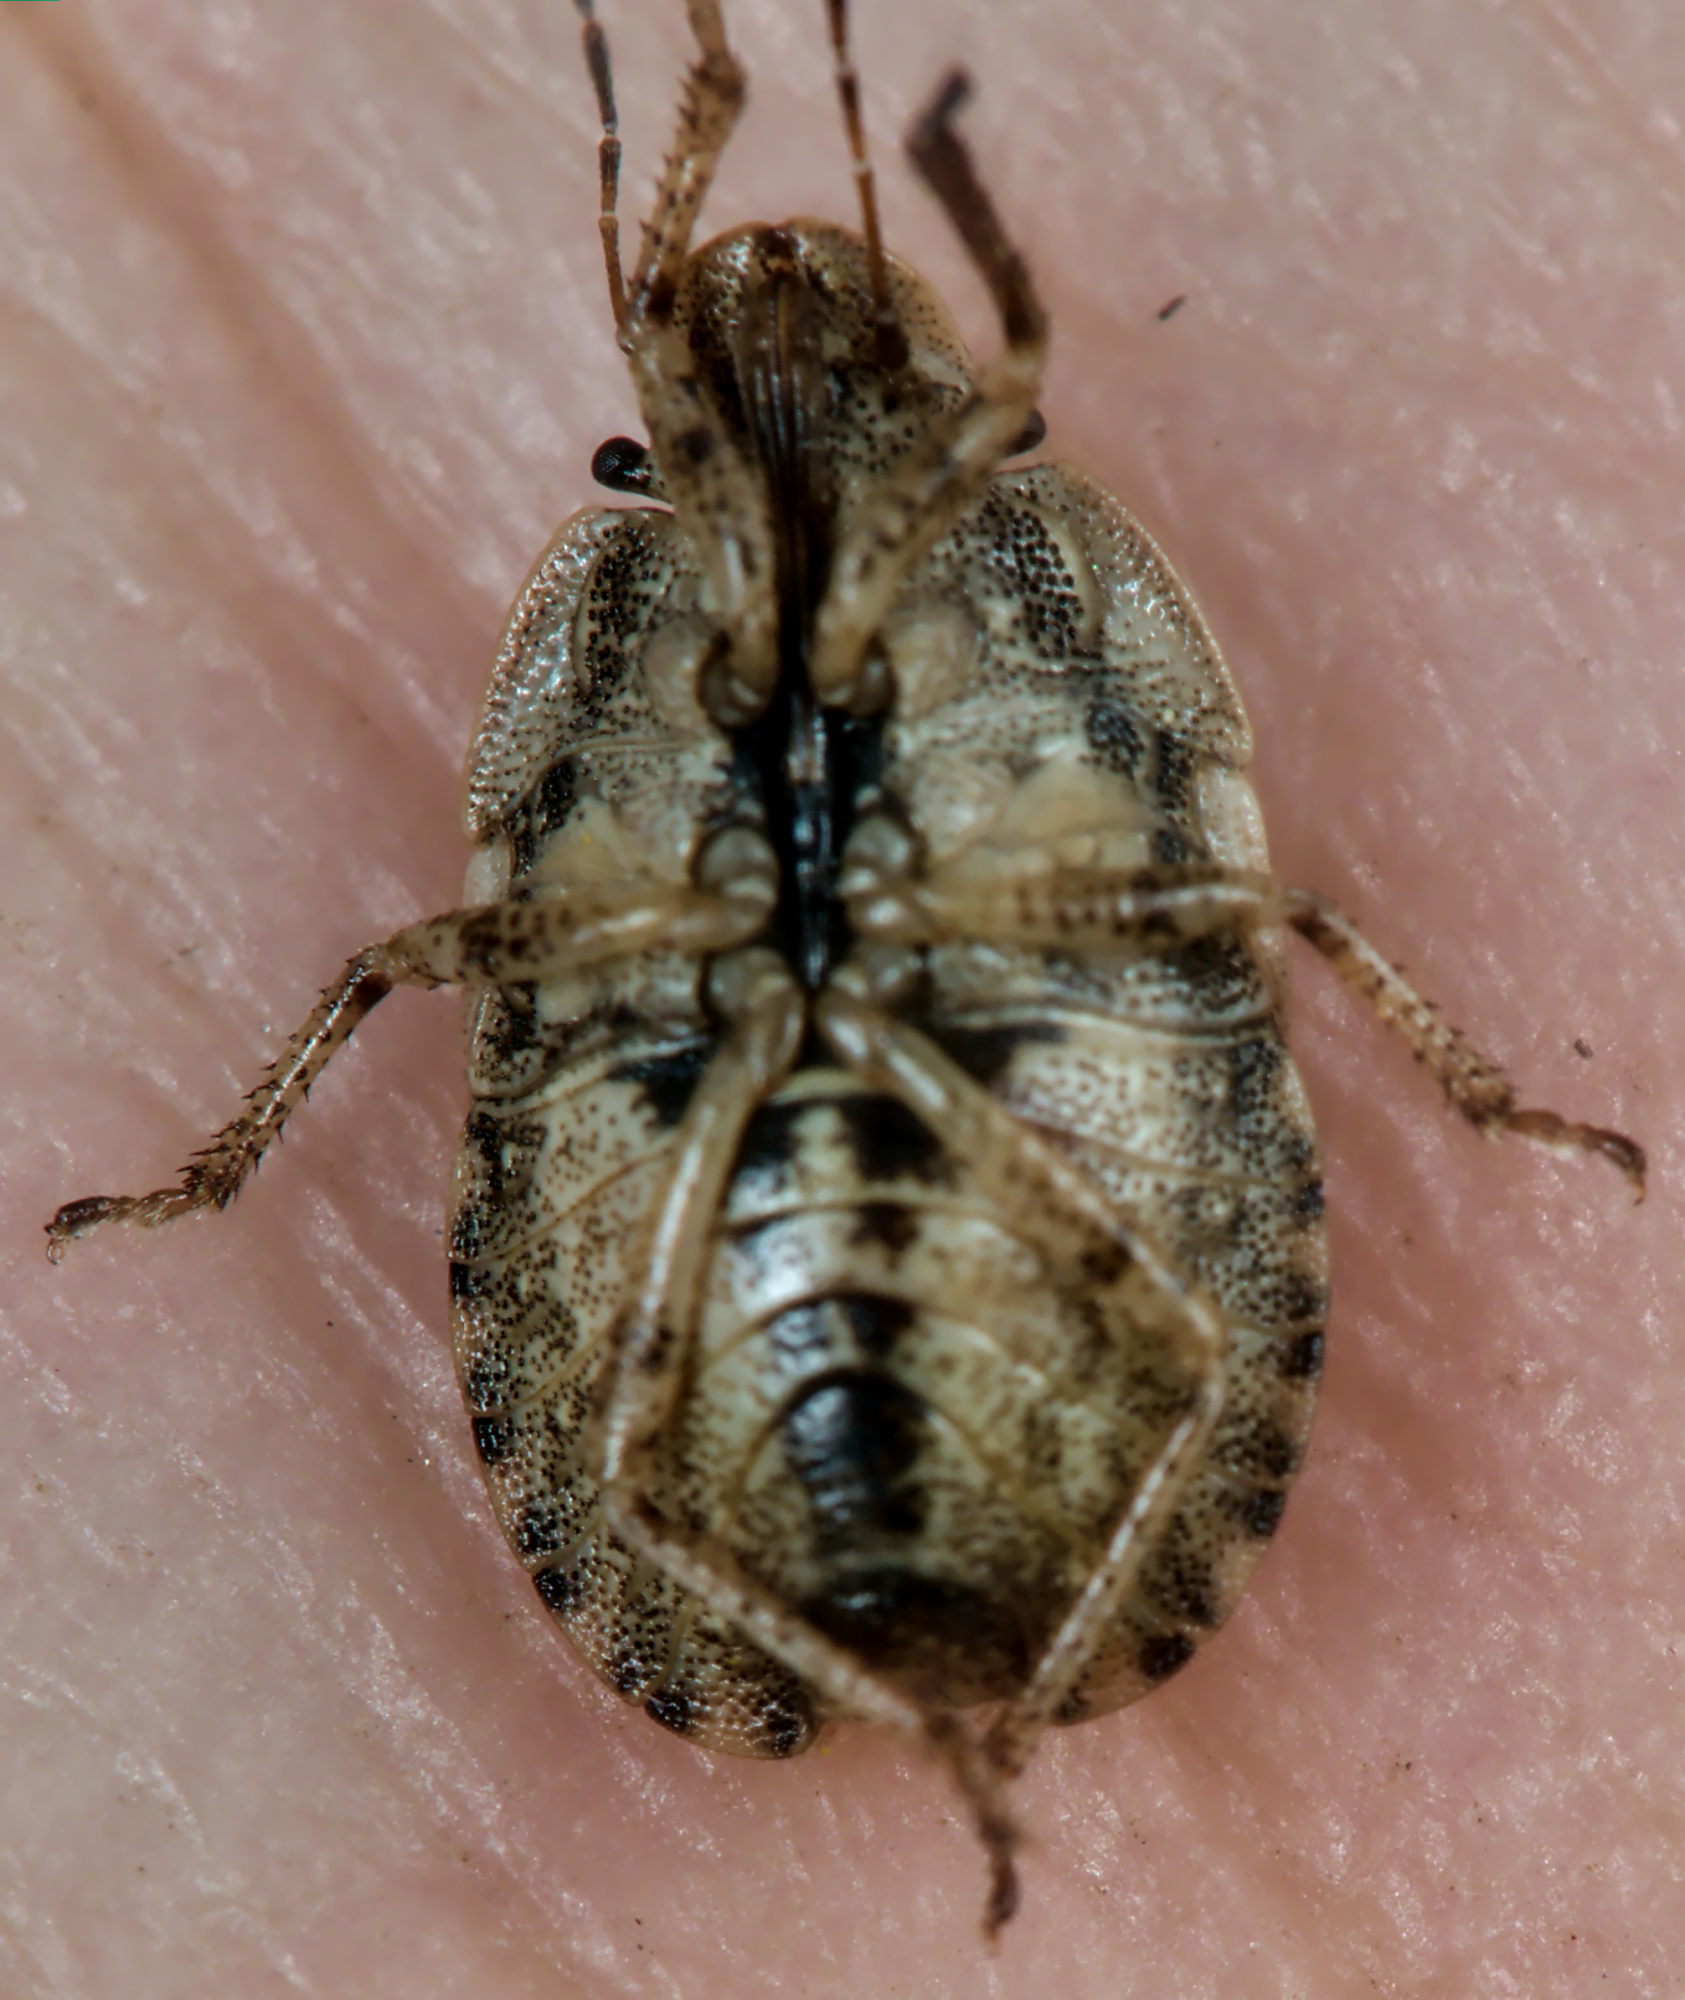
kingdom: Animalia
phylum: Arthropoda
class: Insecta
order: Hemiptera
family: Pentatomidae
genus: Sciocoris
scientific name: Sciocoris macrocephalus
